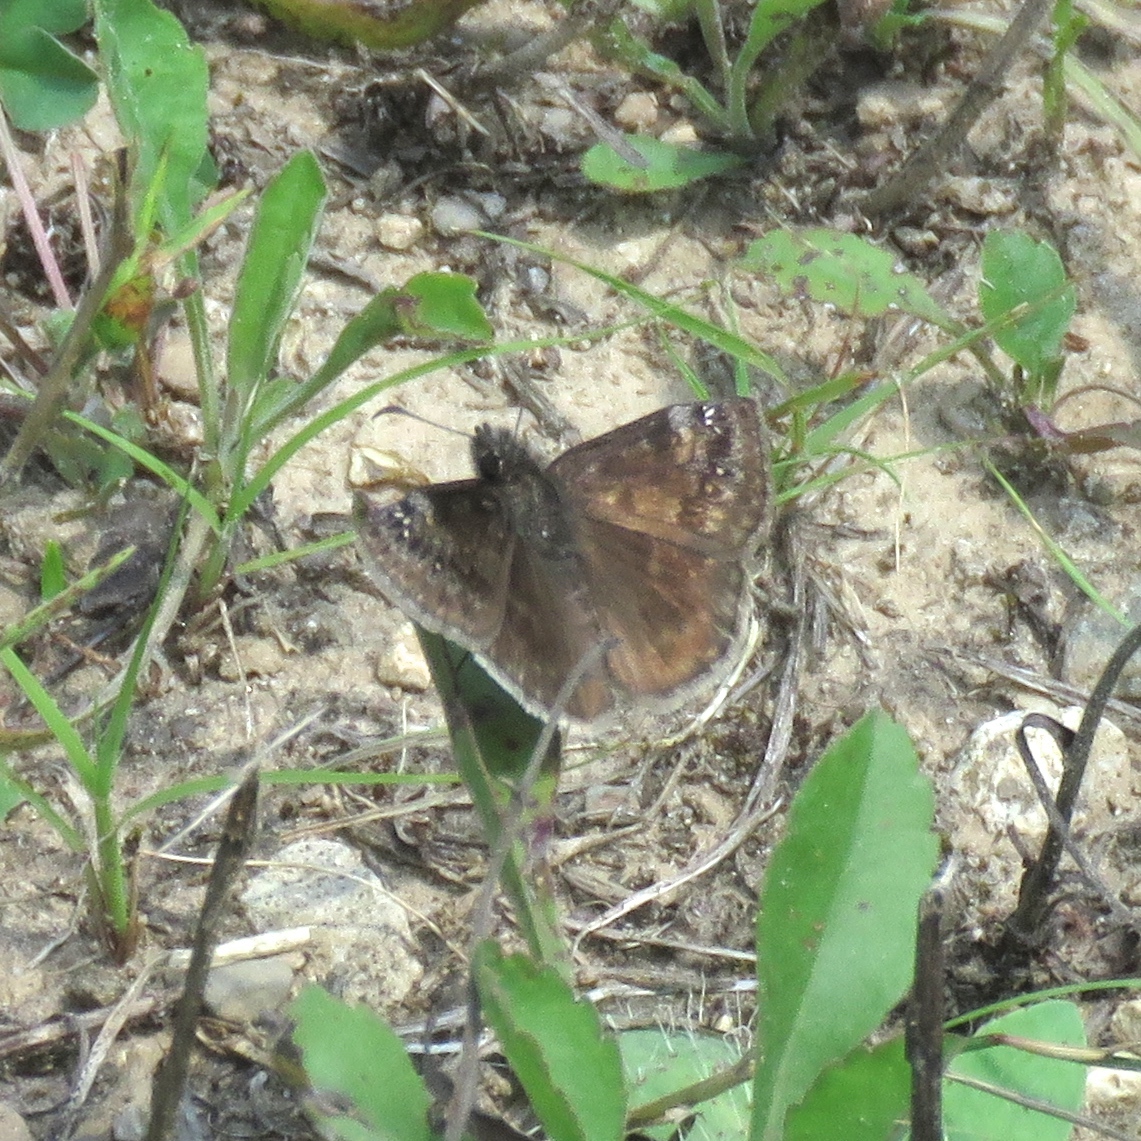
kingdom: Animalia
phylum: Arthropoda
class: Insecta
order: Lepidoptera
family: Hesperiidae
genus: Erynnis
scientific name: Erynnis baptisiae
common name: Wild indigo duskywing
